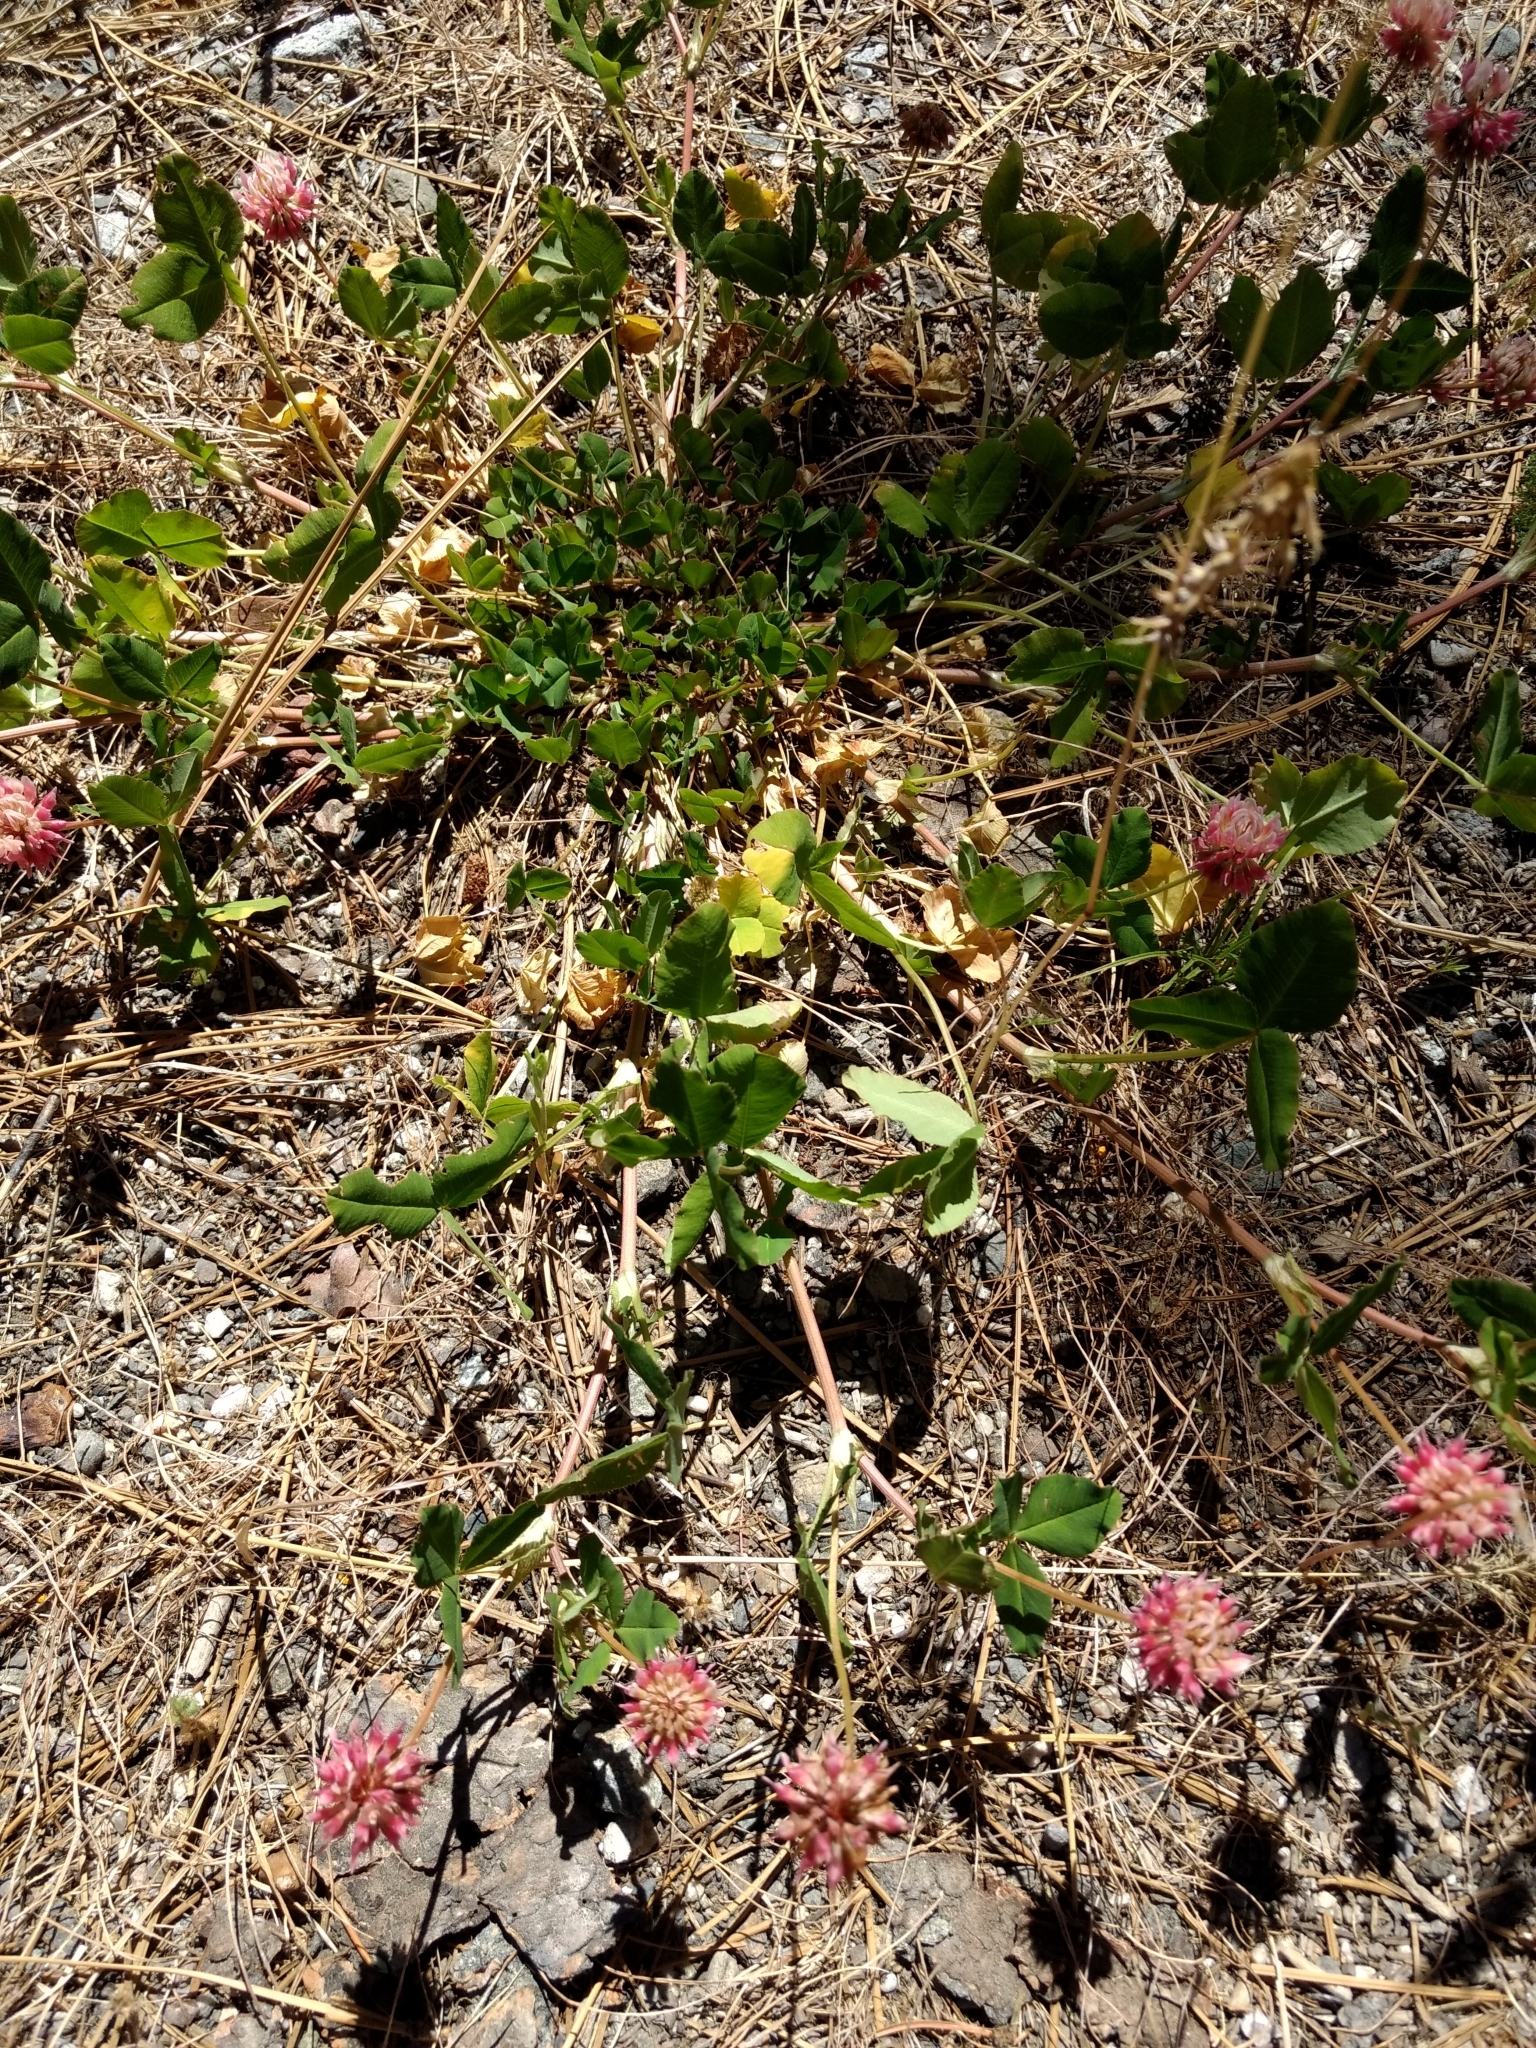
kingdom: Plantae
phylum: Tracheophyta
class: Magnoliopsida
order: Fabales
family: Fabaceae
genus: Trifolium
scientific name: Trifolium hybridum
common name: Alsike clover
